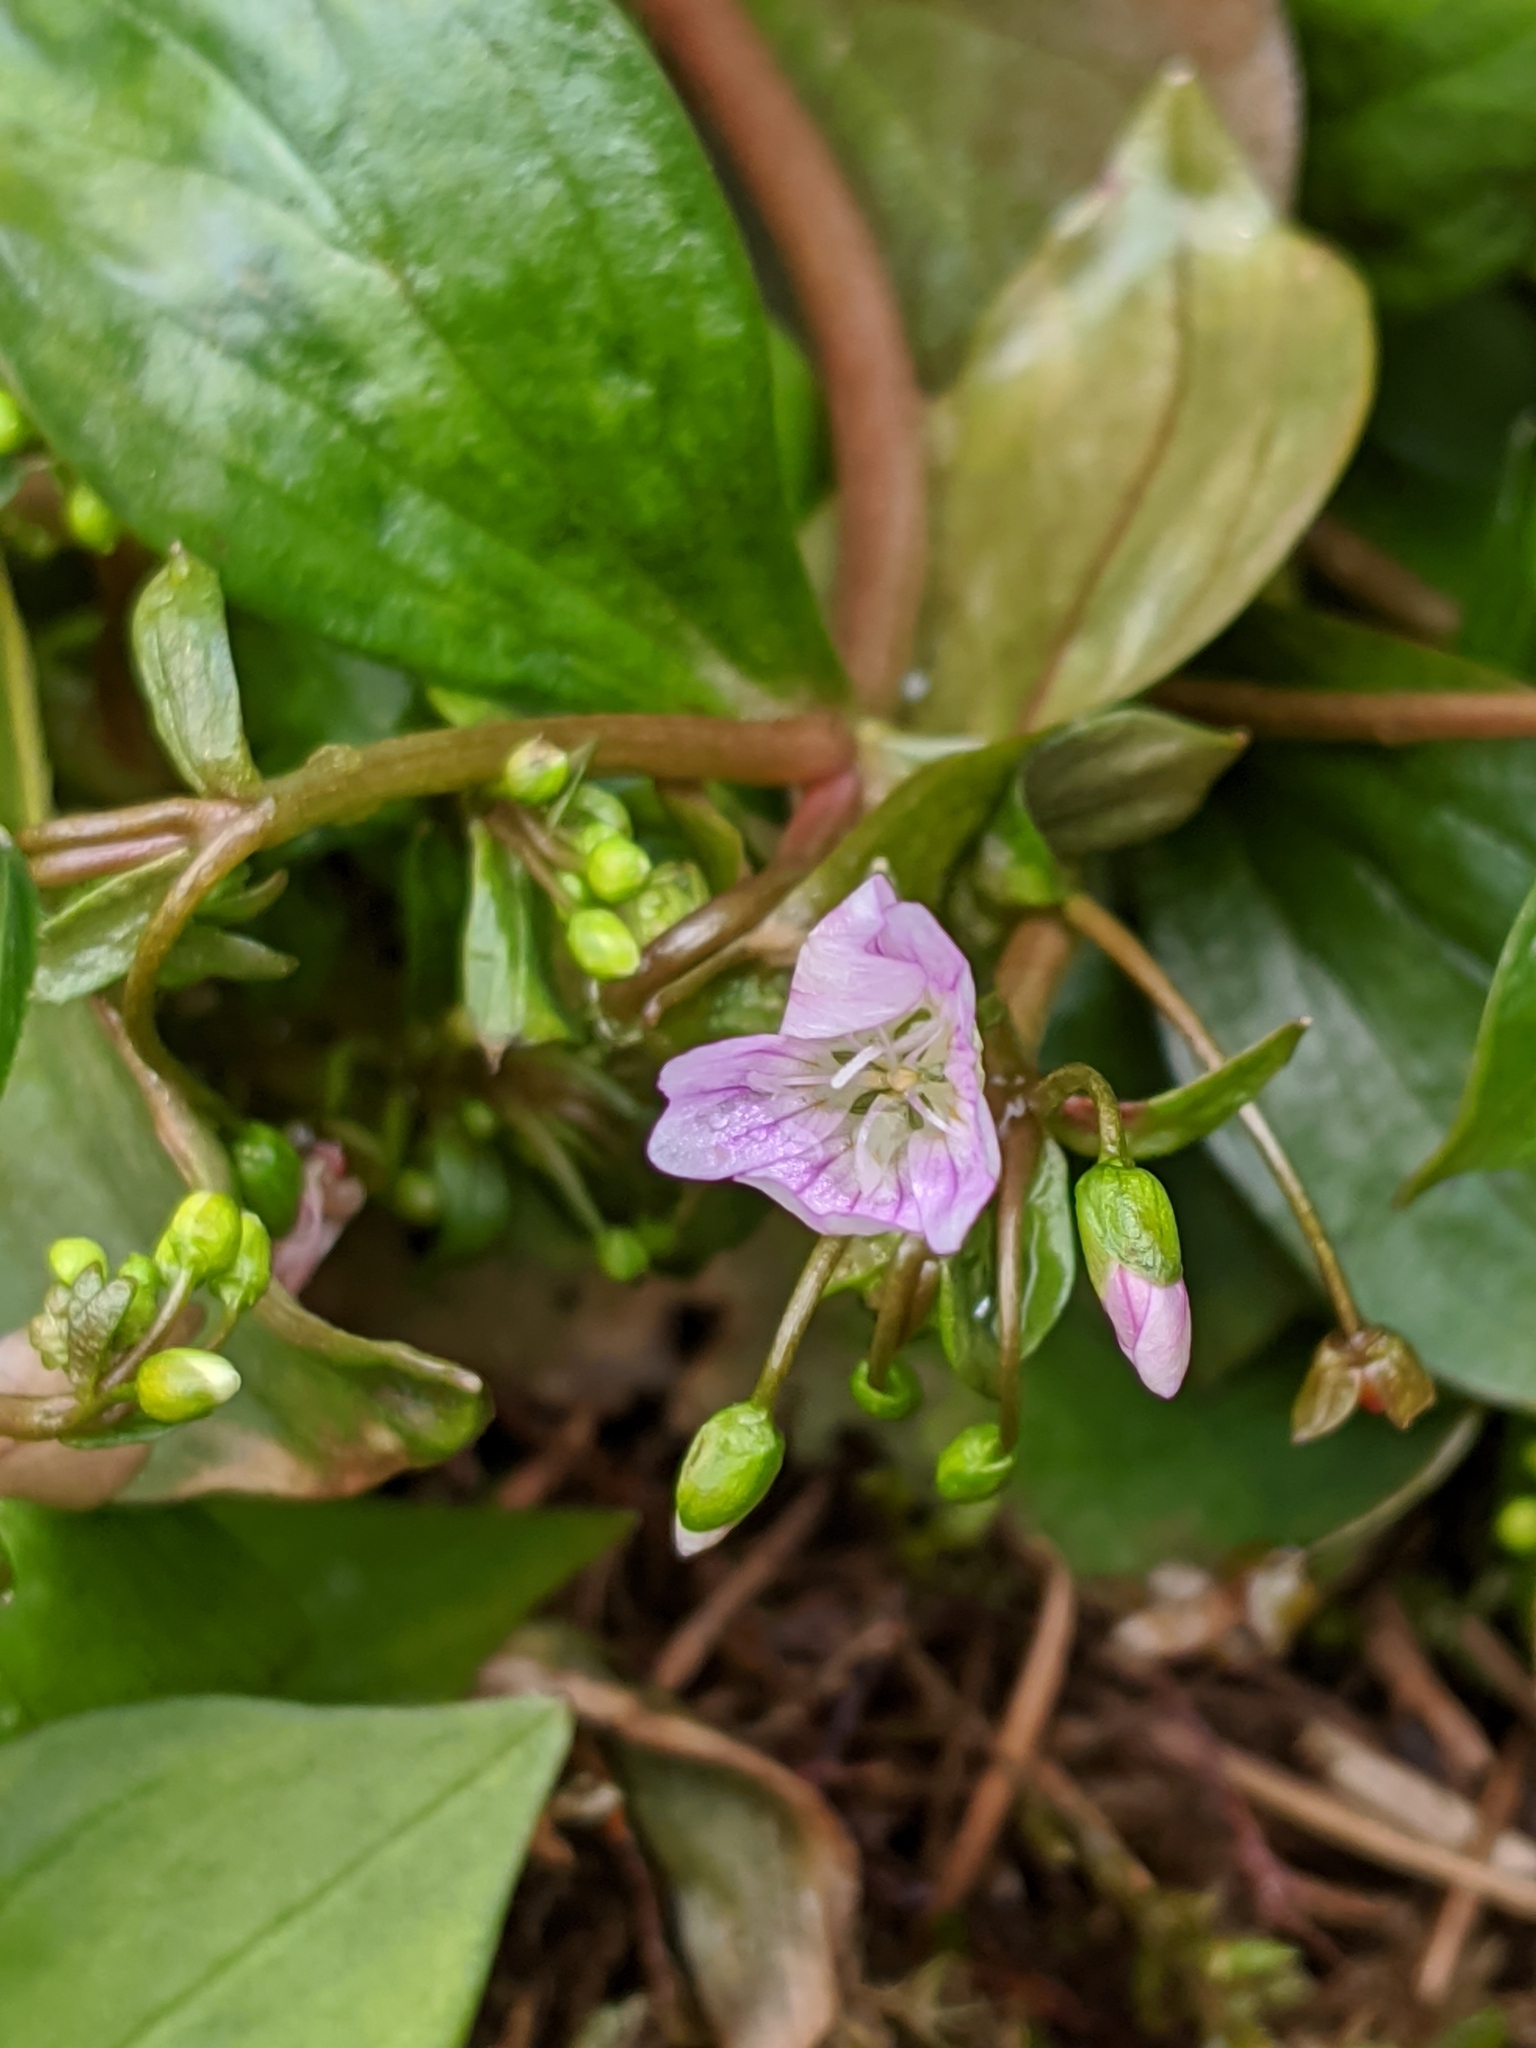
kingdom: Plantae
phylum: Tracheophyta
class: Magnoliopsida
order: Caryophyllales
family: Montiaceae
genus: Claytonia
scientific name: Claytonia sibirica
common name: Pink purslane
